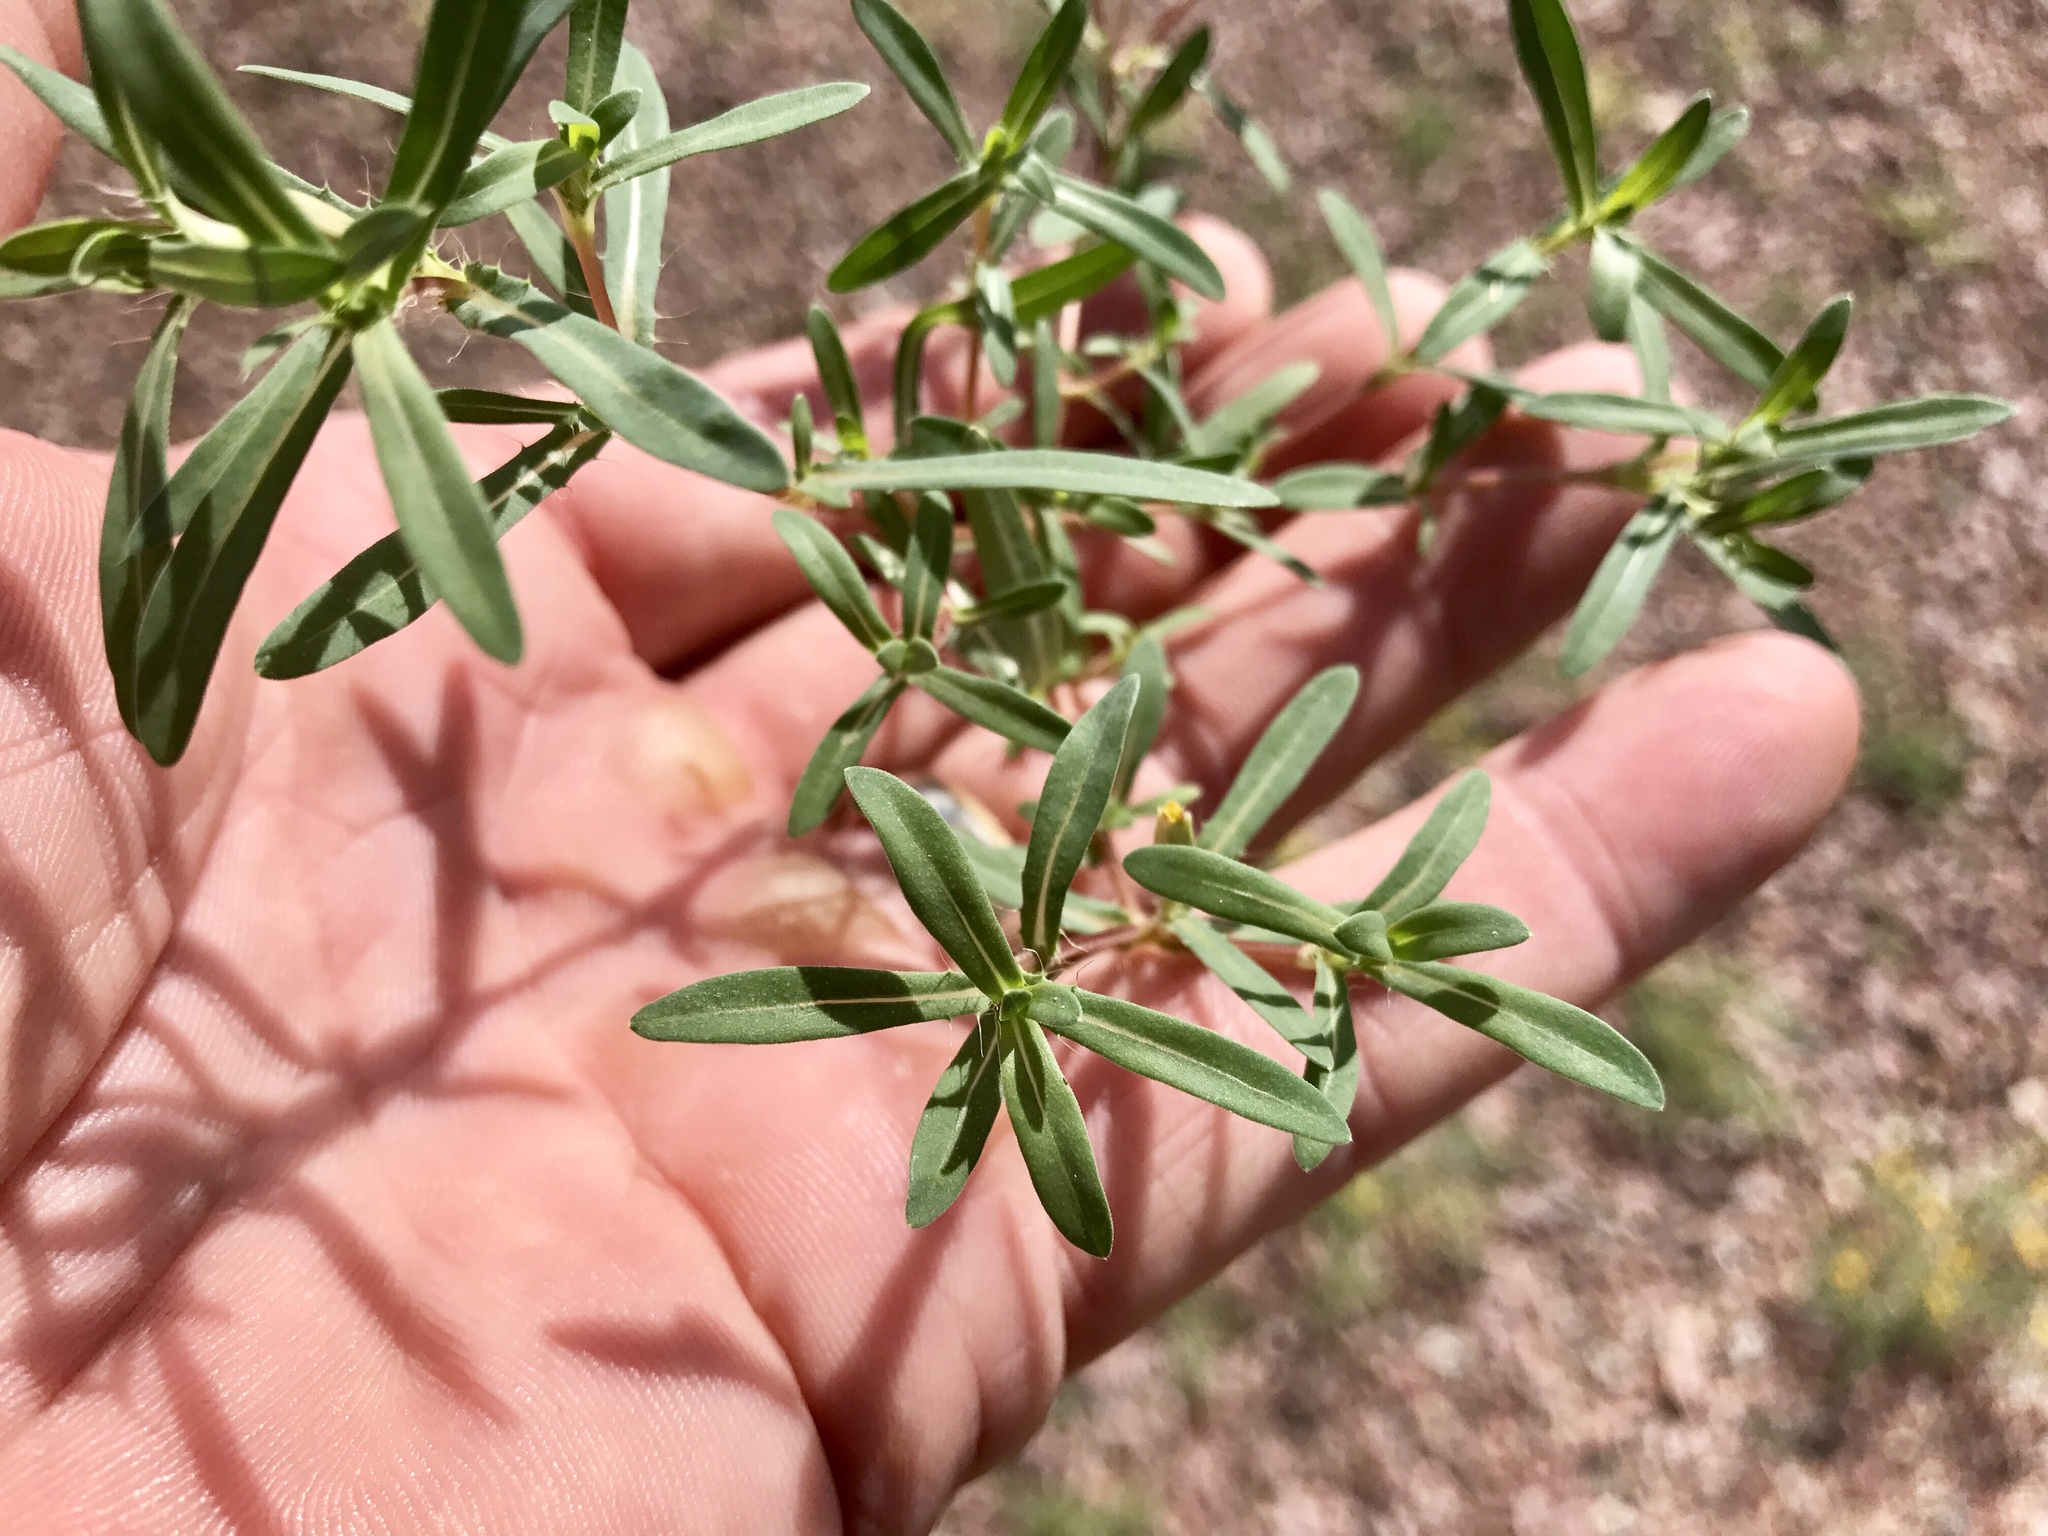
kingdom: Plantae
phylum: Tracheophyta
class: Magnoliopsida
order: Asterales
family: Asteraceae
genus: Pectis
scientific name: Pectis cylindrica
